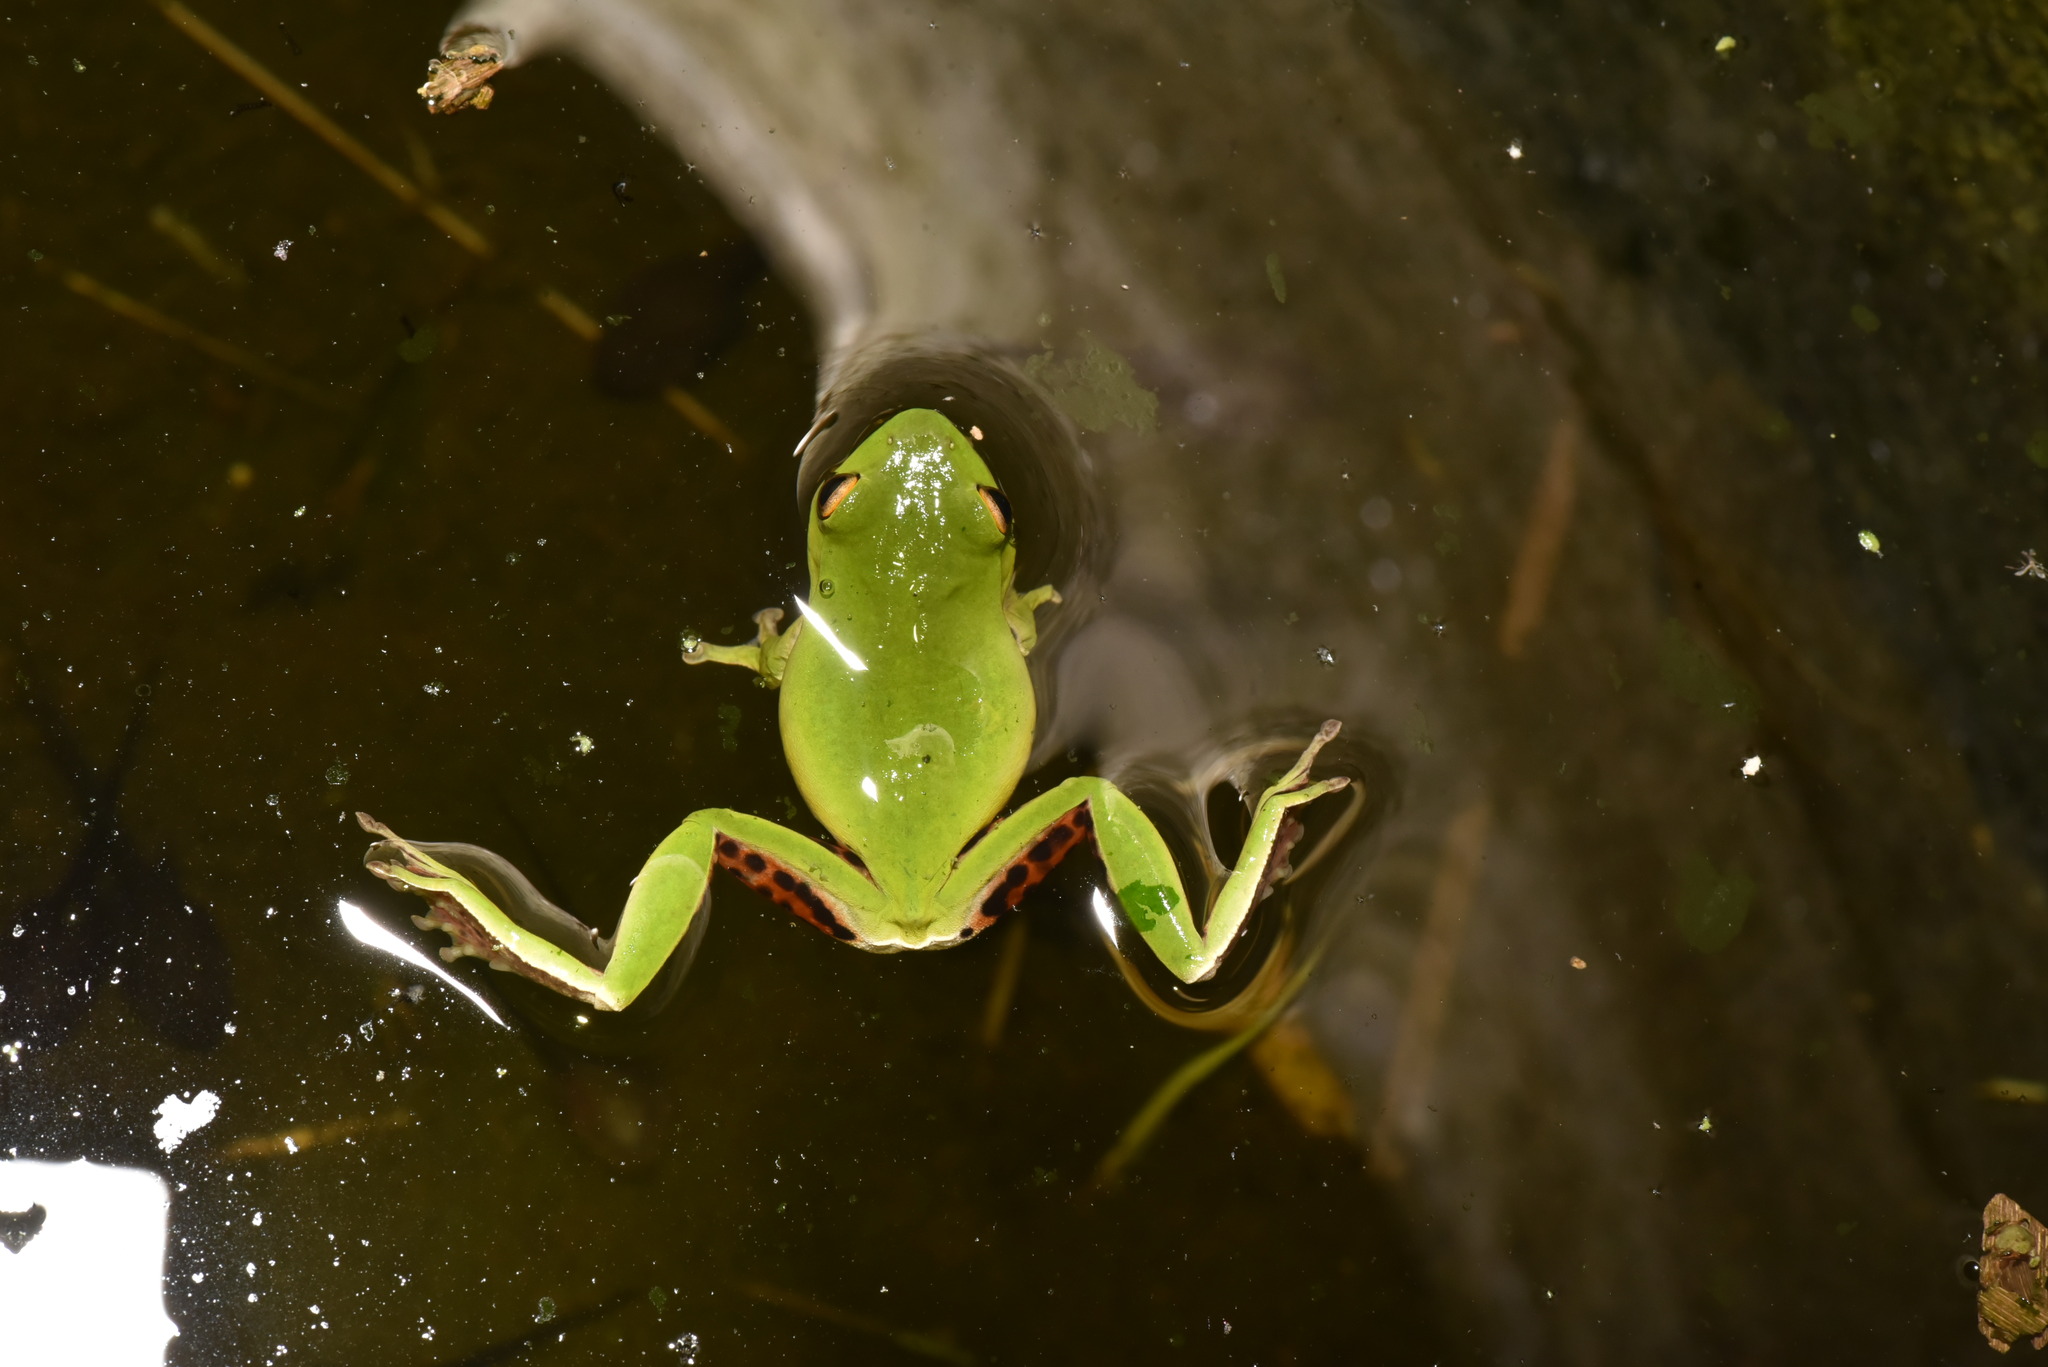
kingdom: Animalia
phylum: Chordata
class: Amphibia
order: Anura
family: Rhacophoridae
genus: Zhangixalus
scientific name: Zhangixalus moltrechti
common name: Moltrecht's treefrog
